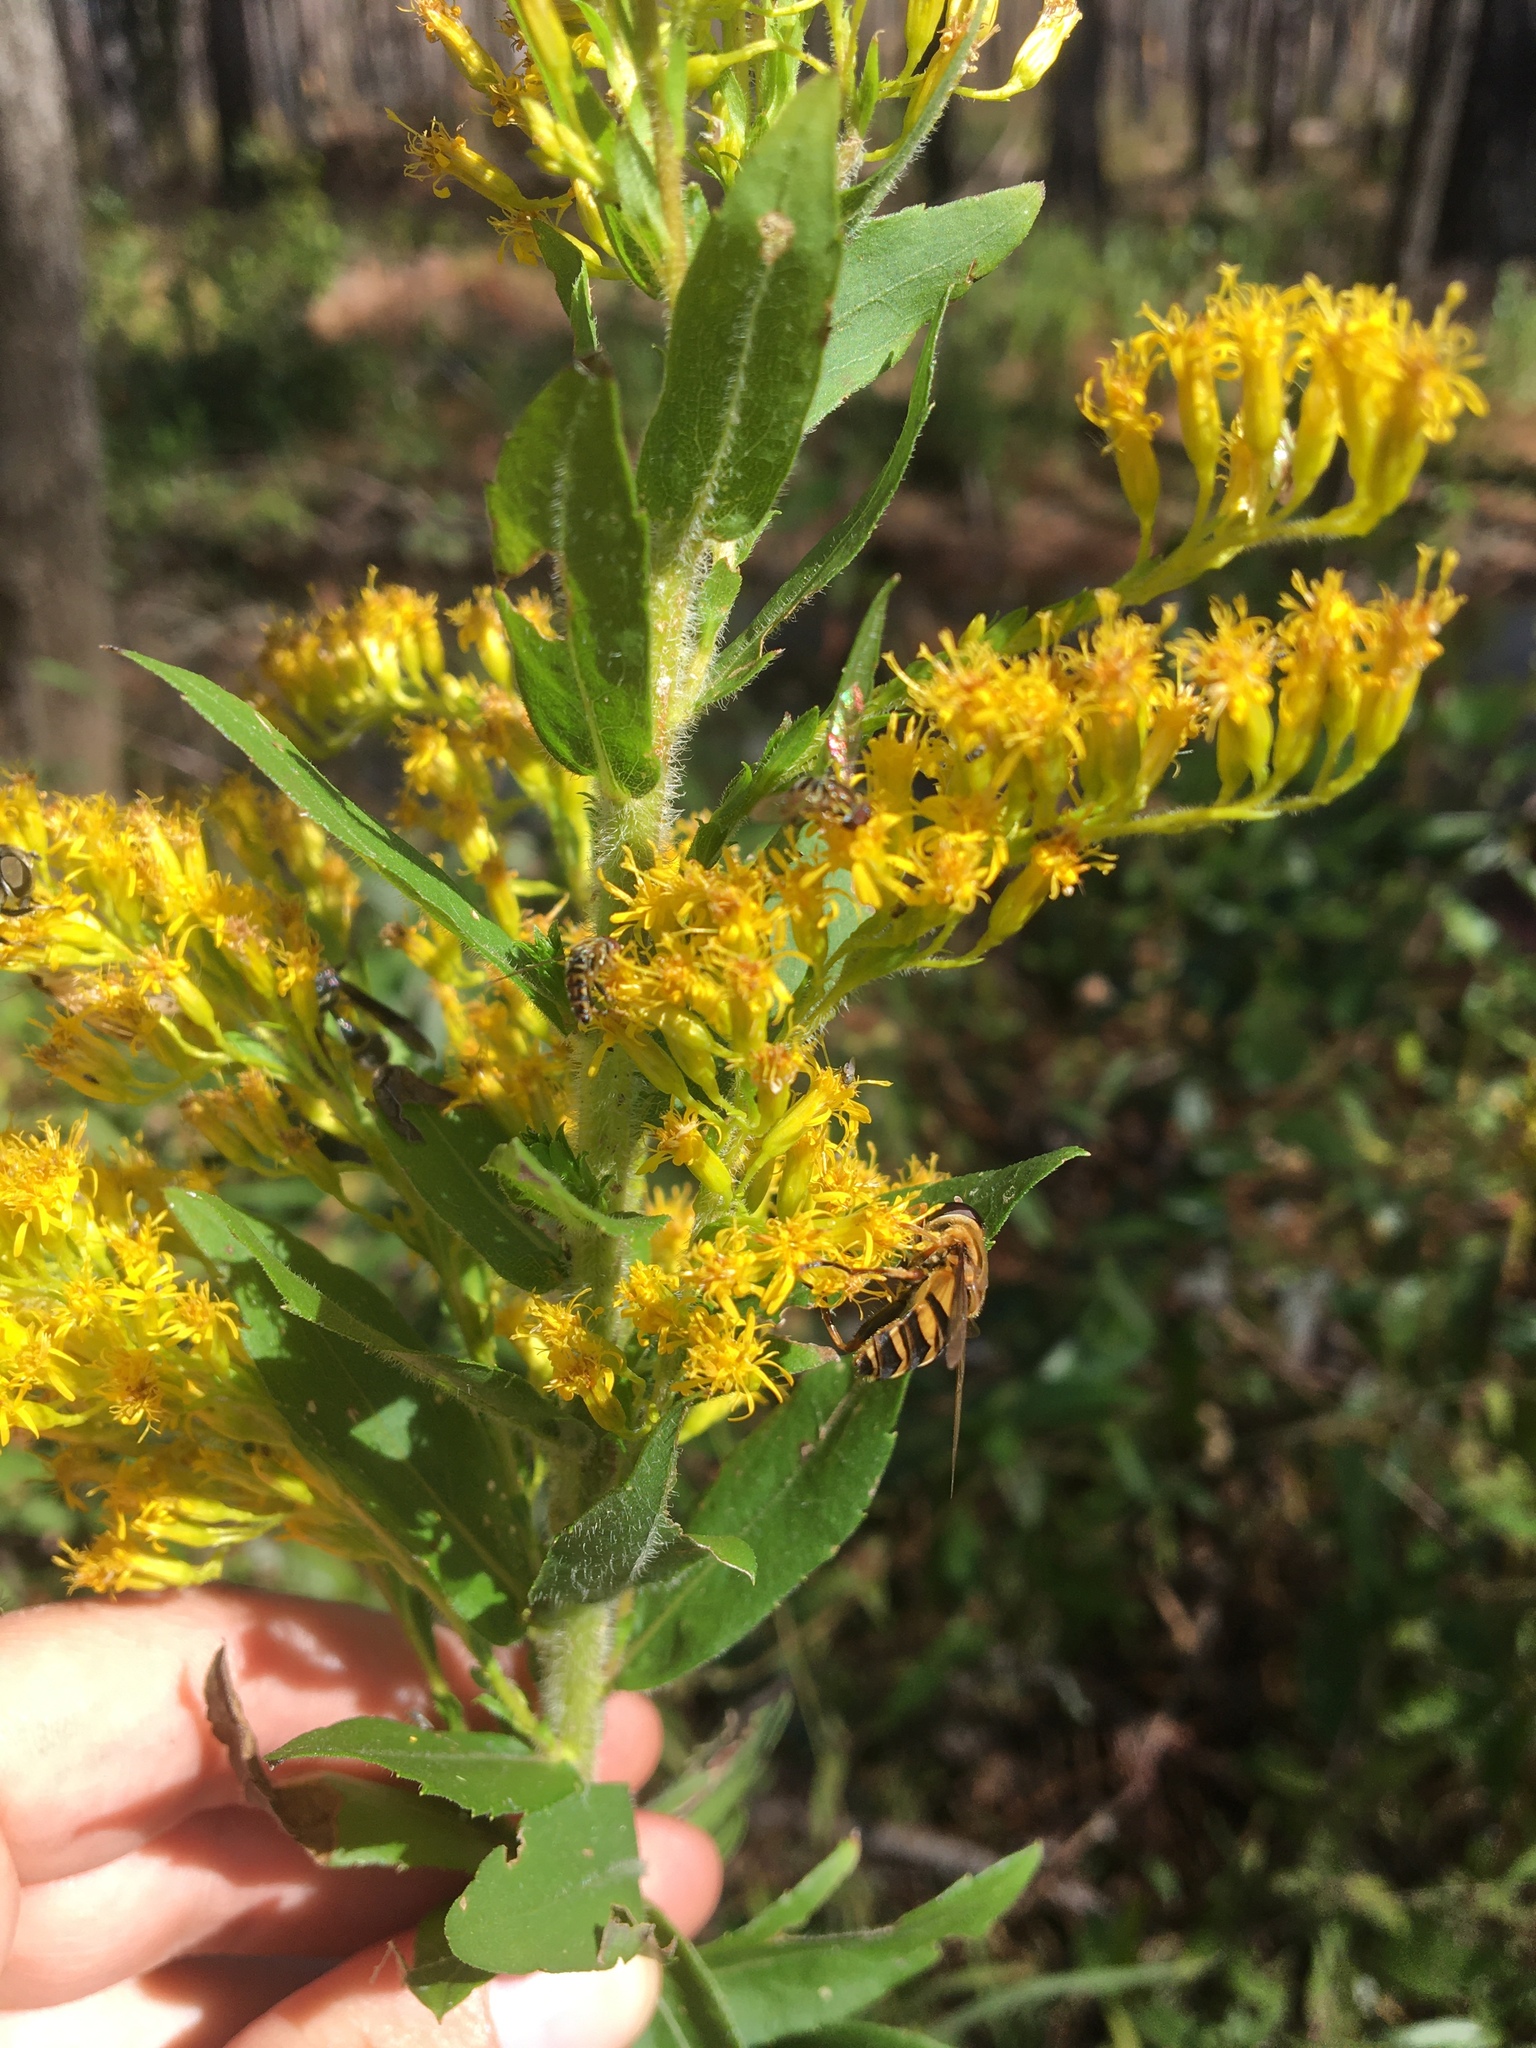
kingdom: Plantae
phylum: Tracheophyta
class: Magnoliopsida
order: Asterales
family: Asteraceae
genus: Solidago
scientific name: Solidago fistulosa
